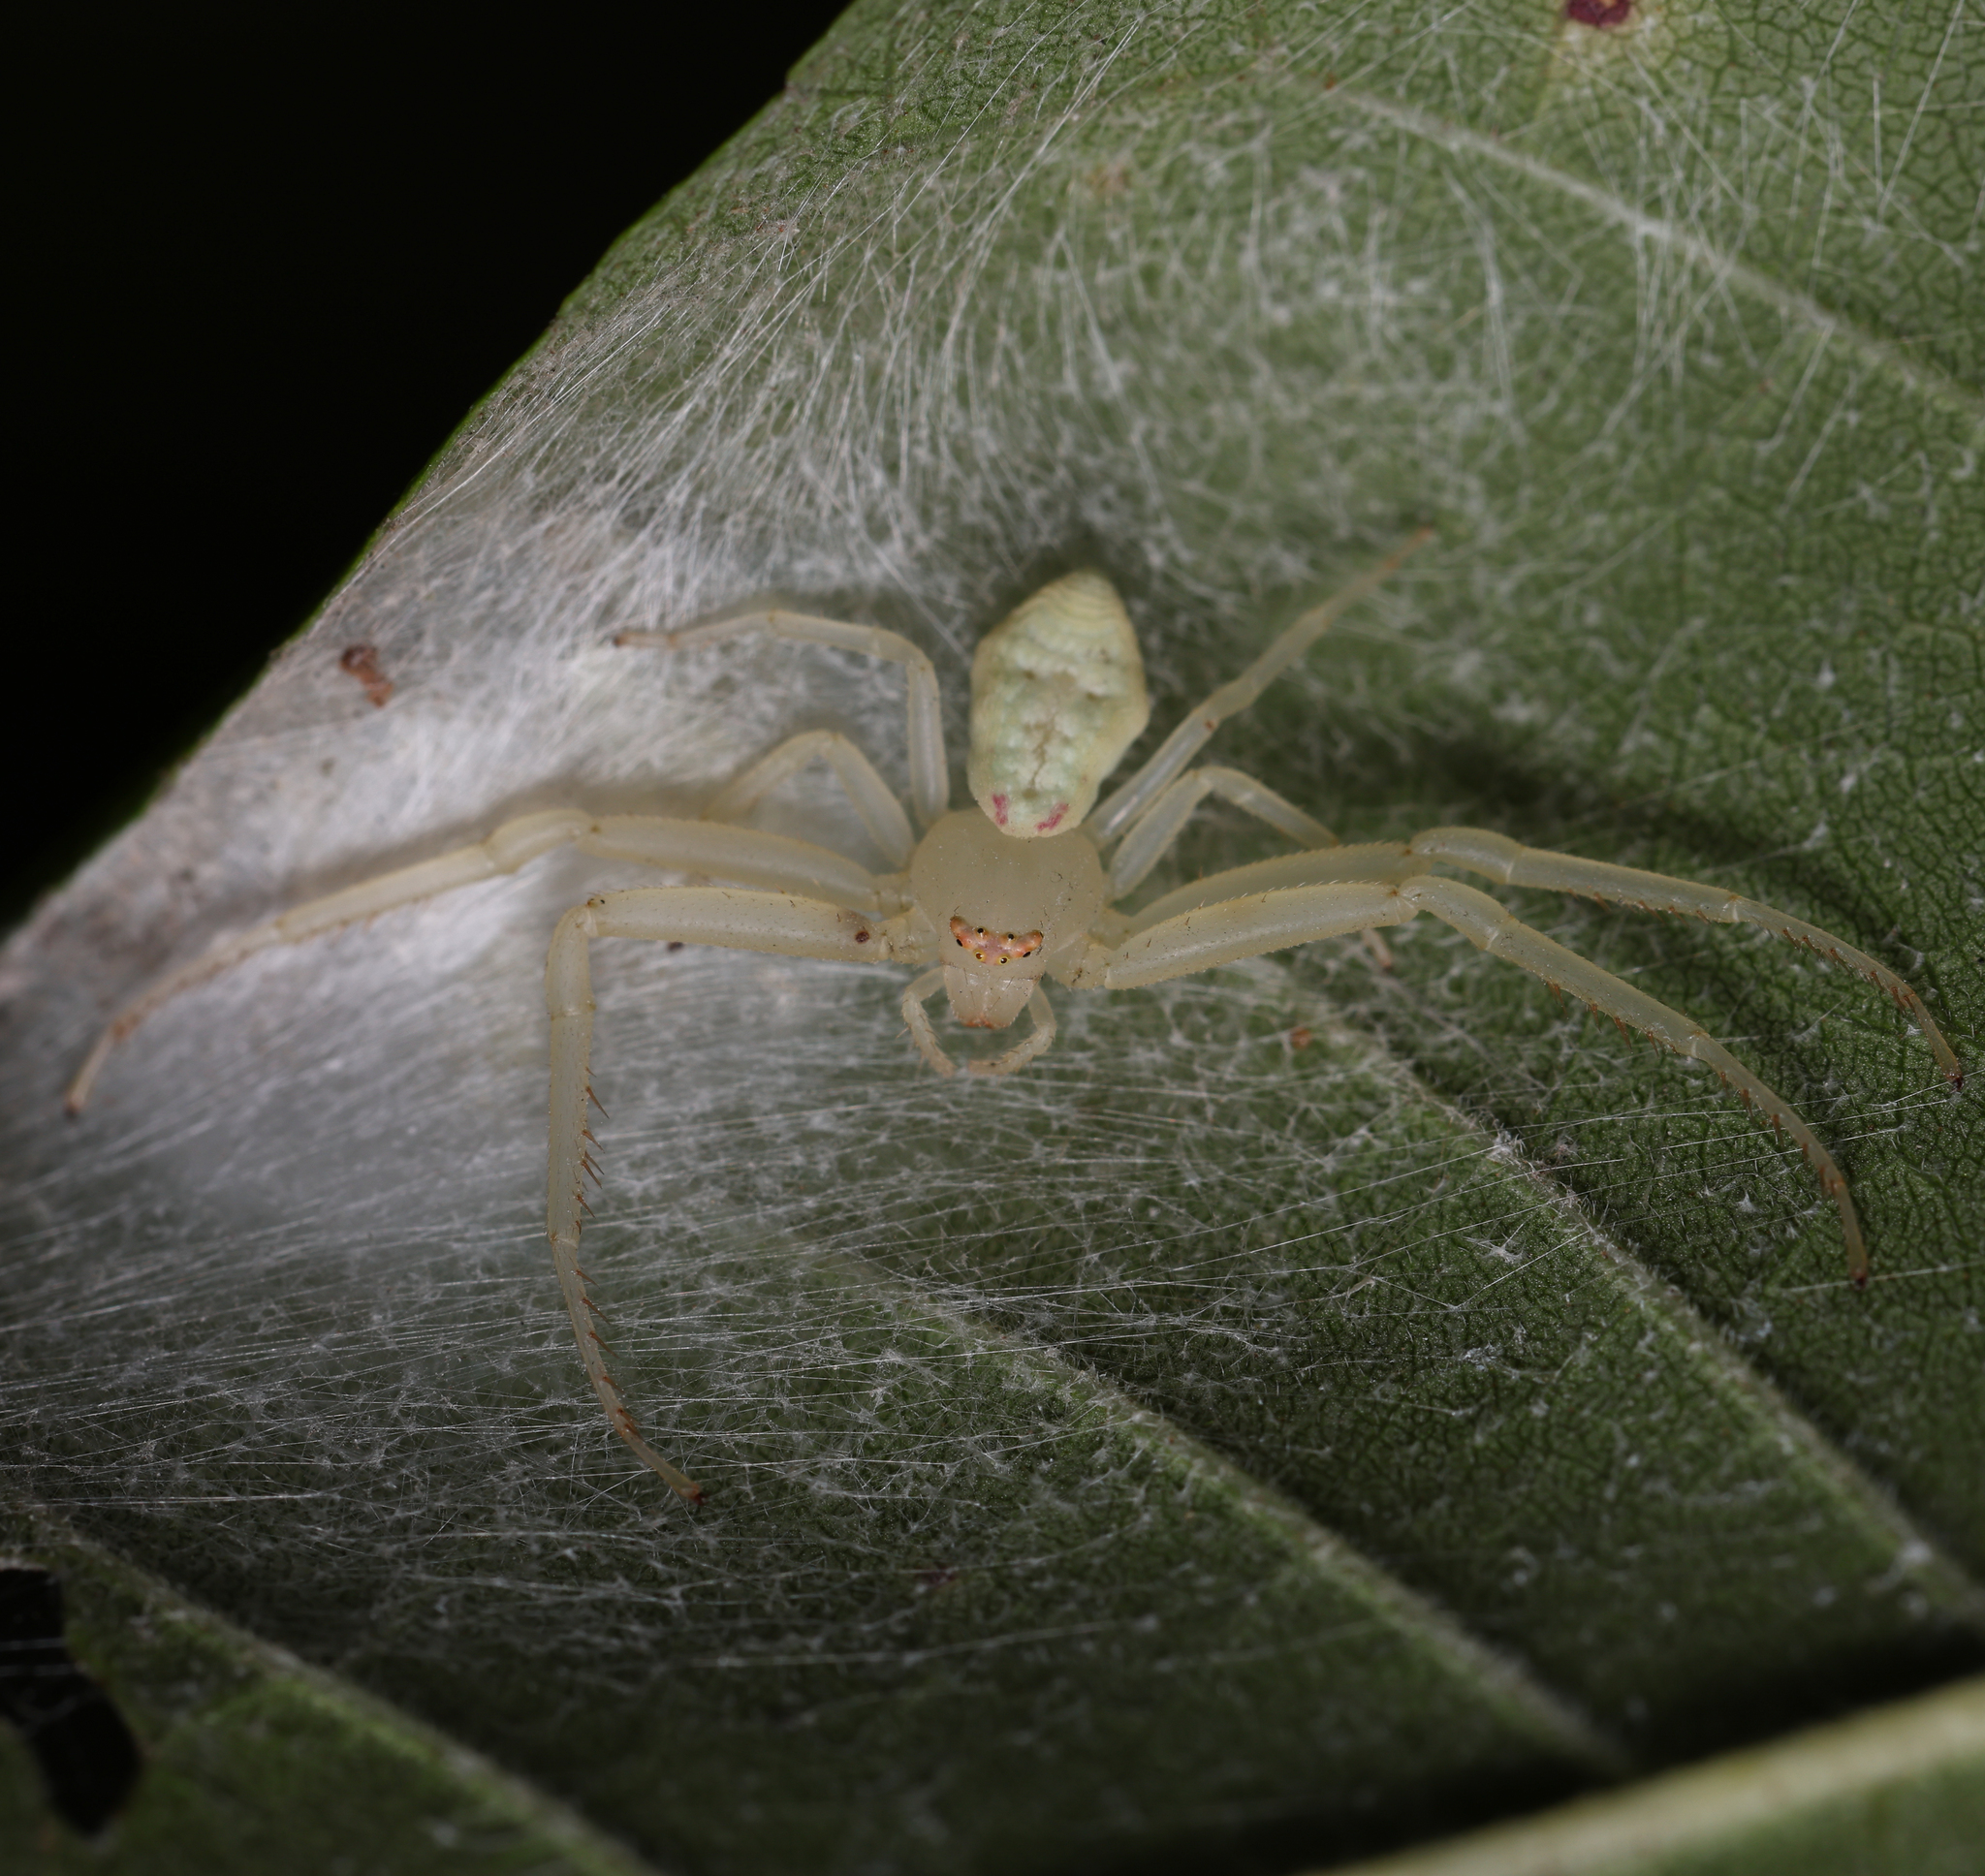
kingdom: Animalia
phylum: Arthropoda
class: Arachnida
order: Araneae
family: Thomisidae
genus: Misumessus
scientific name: Misumessus oblongus
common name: American green crab spider
